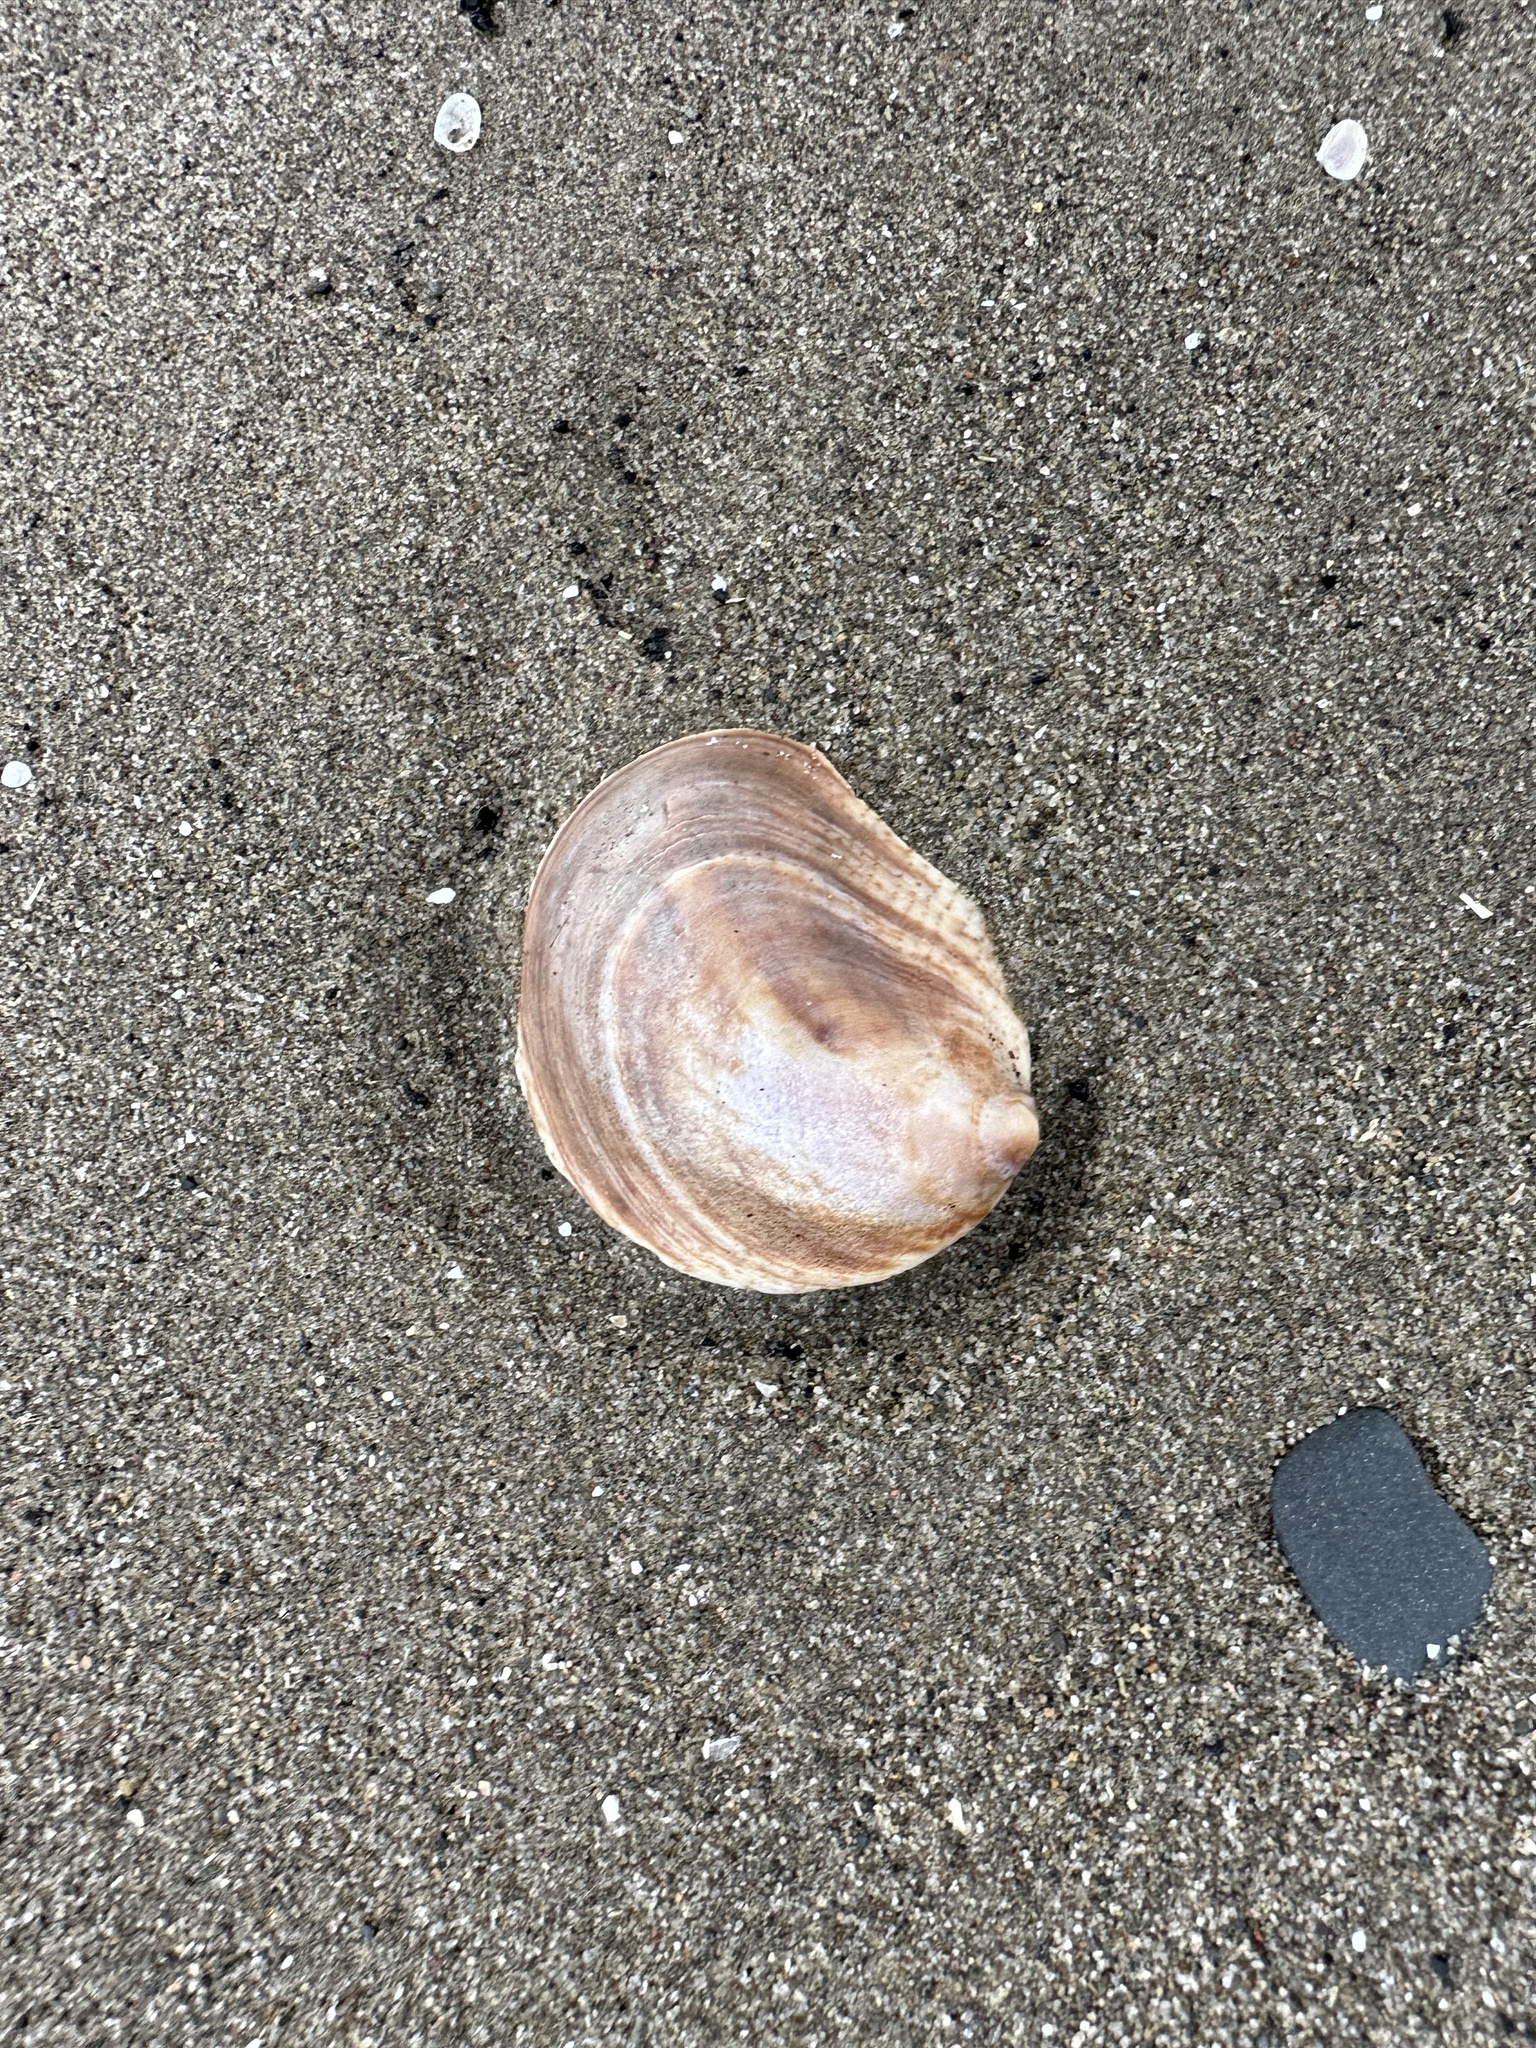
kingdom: Animalia
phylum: Mollusca
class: Gastropoda
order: Littorinimorpha
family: Calyptraeidae
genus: Crepidula
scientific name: Crepidula fornicata
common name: Slipper limpet
